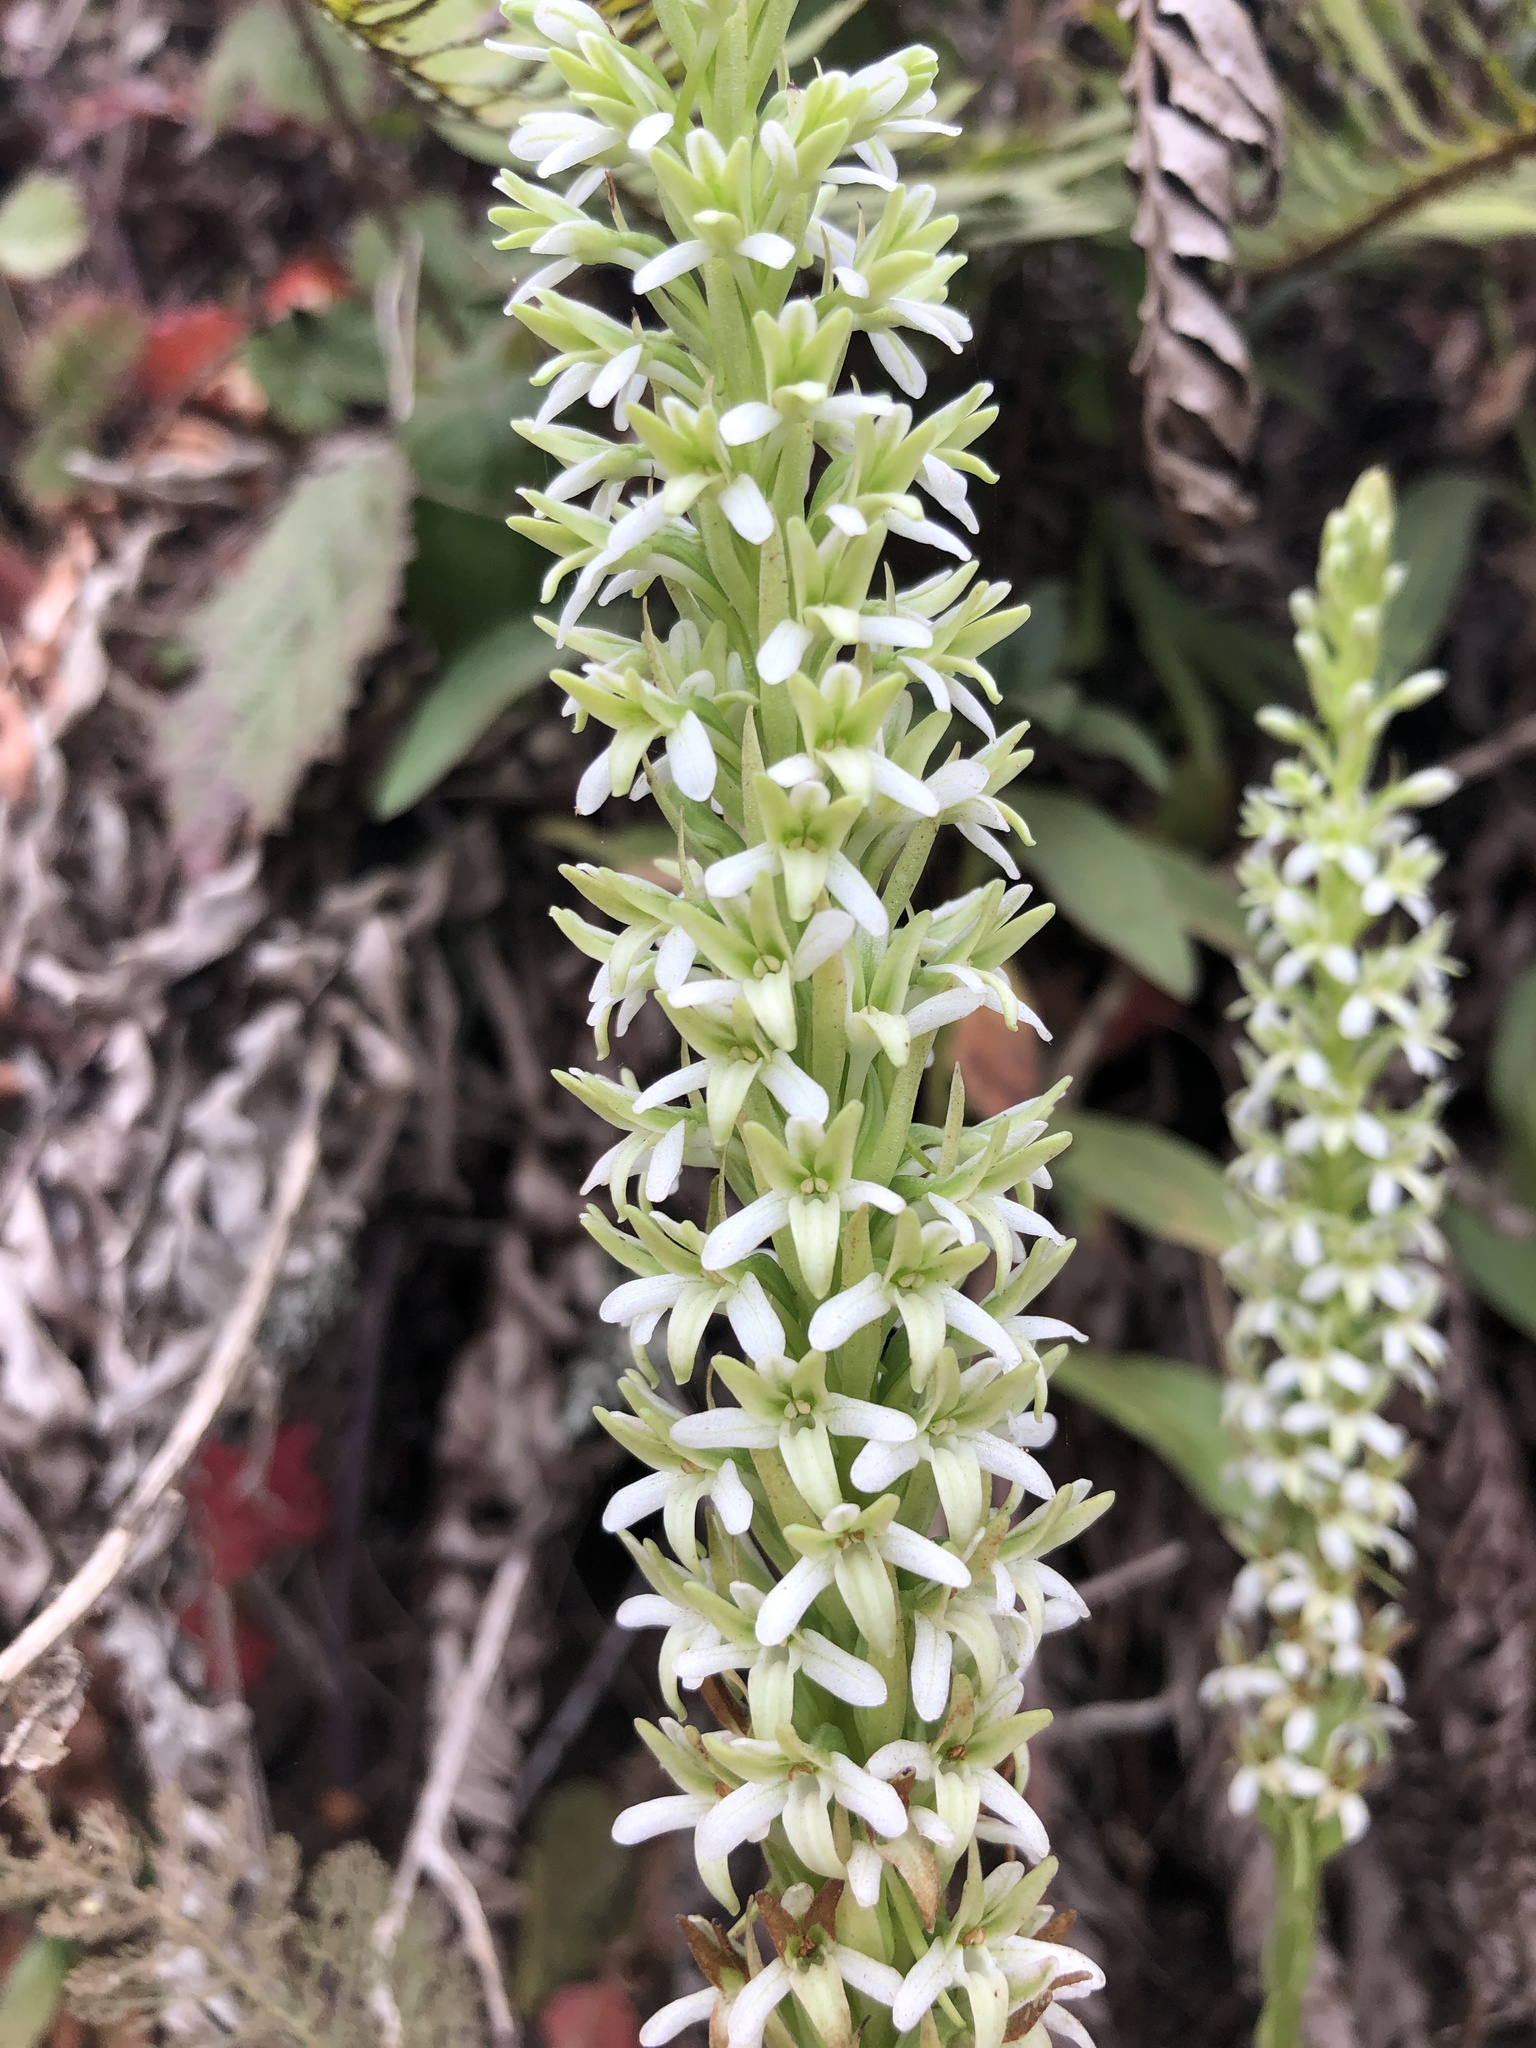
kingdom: Plantae
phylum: Tracheophyta
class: Liliopsida
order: Asparagales
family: Orchidaceae
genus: Platanthera
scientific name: Platanthera elegans
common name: Coast piperia
